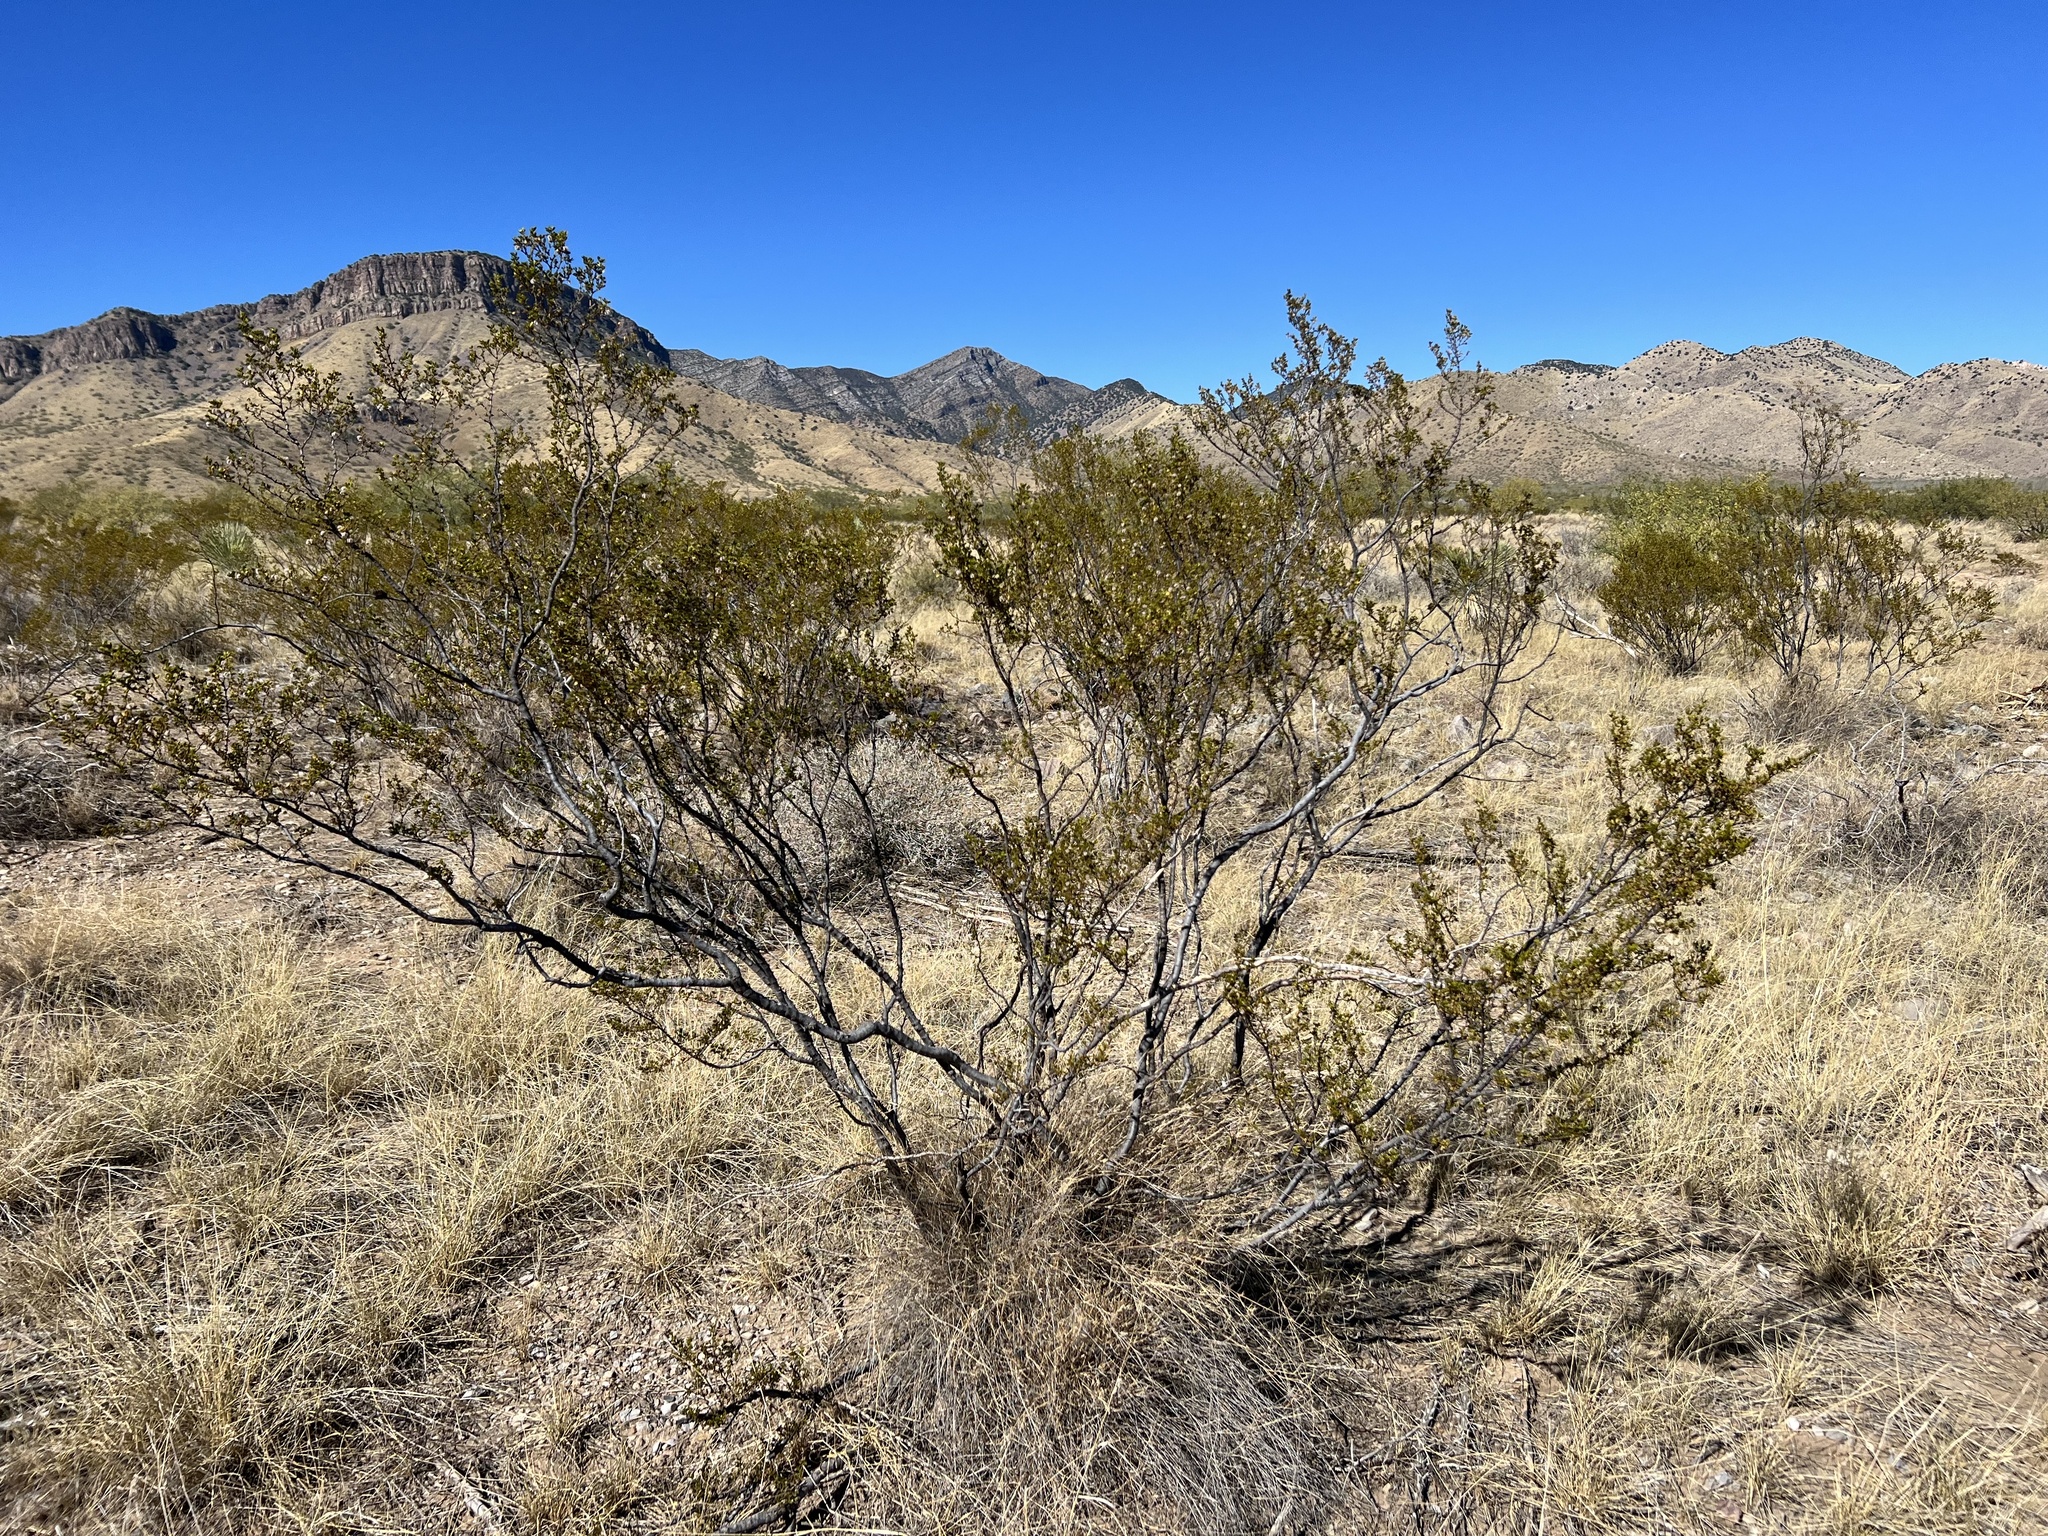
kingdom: Plantae
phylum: Tracheophyta
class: Magnoliopsida
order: Zygophyllales
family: Zygophyllaceae
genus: Larrea
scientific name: Larrea tridentata
